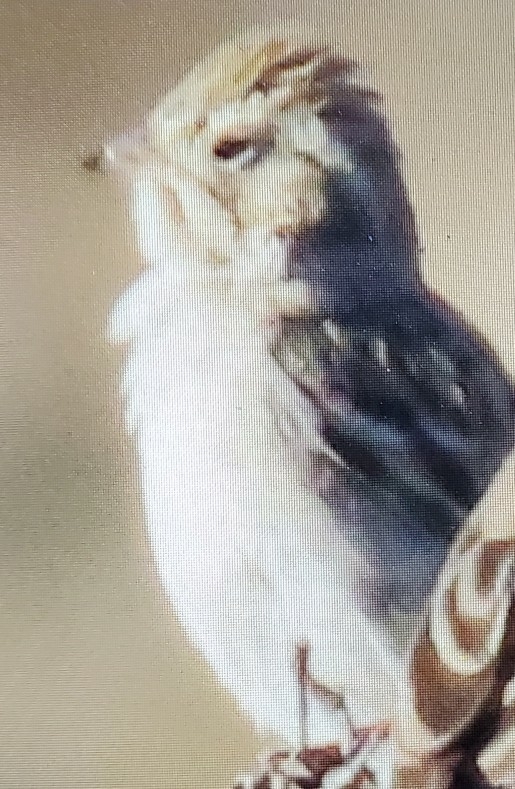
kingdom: Animalia
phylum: Chordata
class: Aves
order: Passeriformes
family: Passerellidae
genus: Spizella
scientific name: Spizella breweri
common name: Brewer's sparrow
